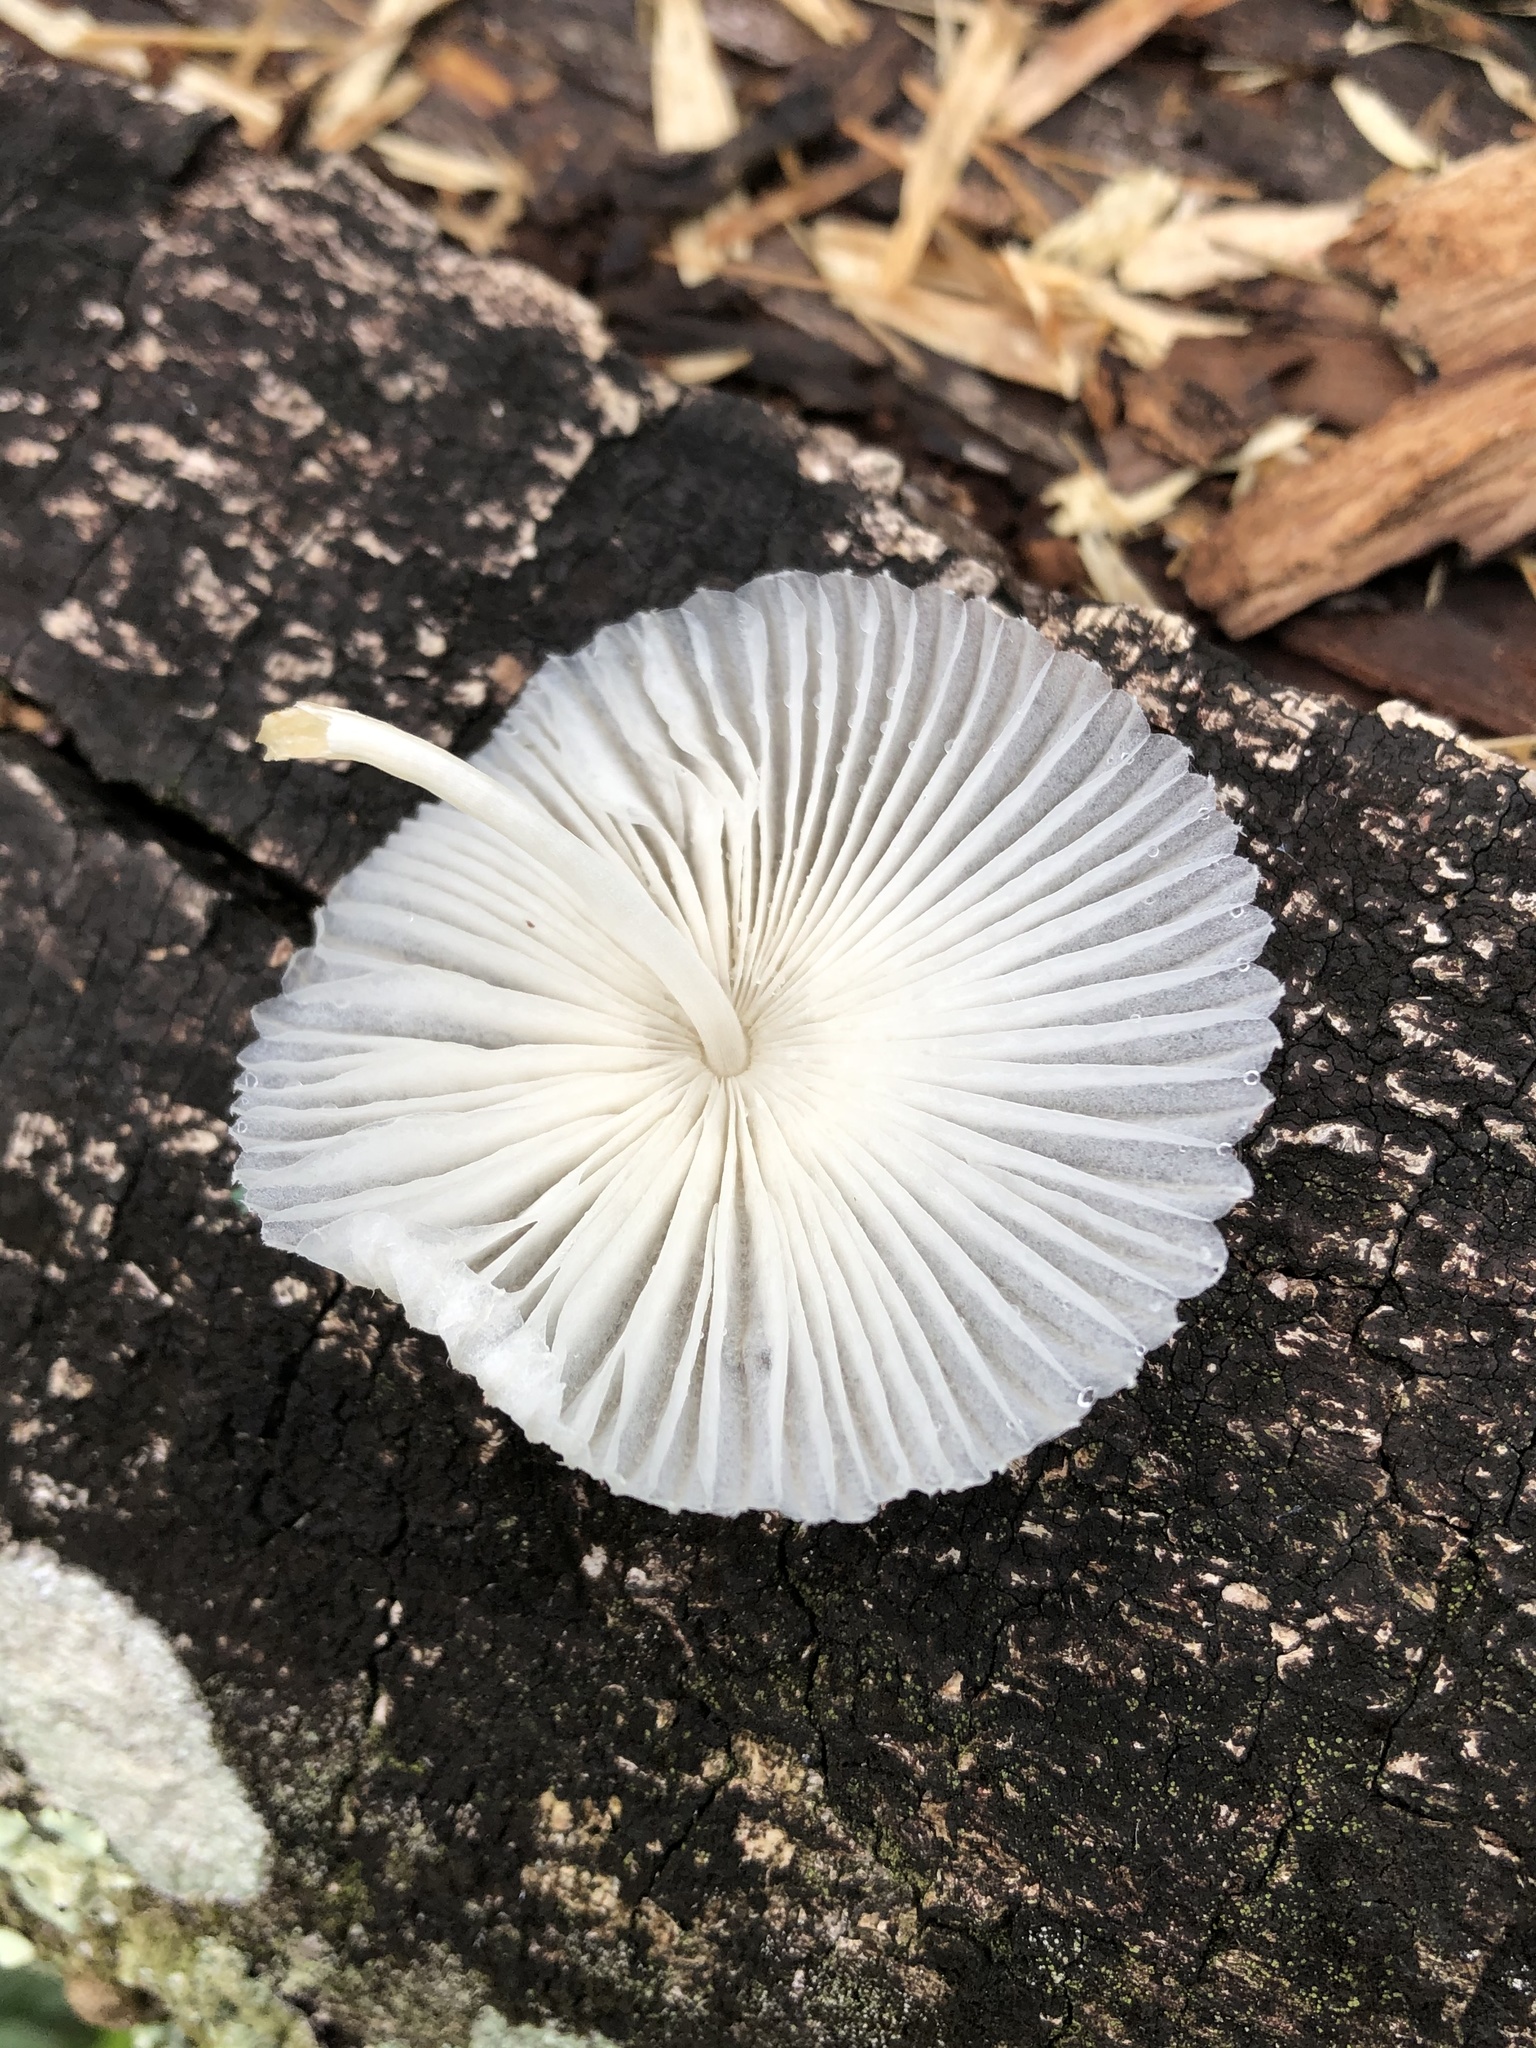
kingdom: Fungi
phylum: Basidiomycota
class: Agaricomycetes
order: Agaricales
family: Agaricaceae
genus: Leucocoprinus
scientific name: Leucocoprinus fragilissimus
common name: Fragile dapperling
